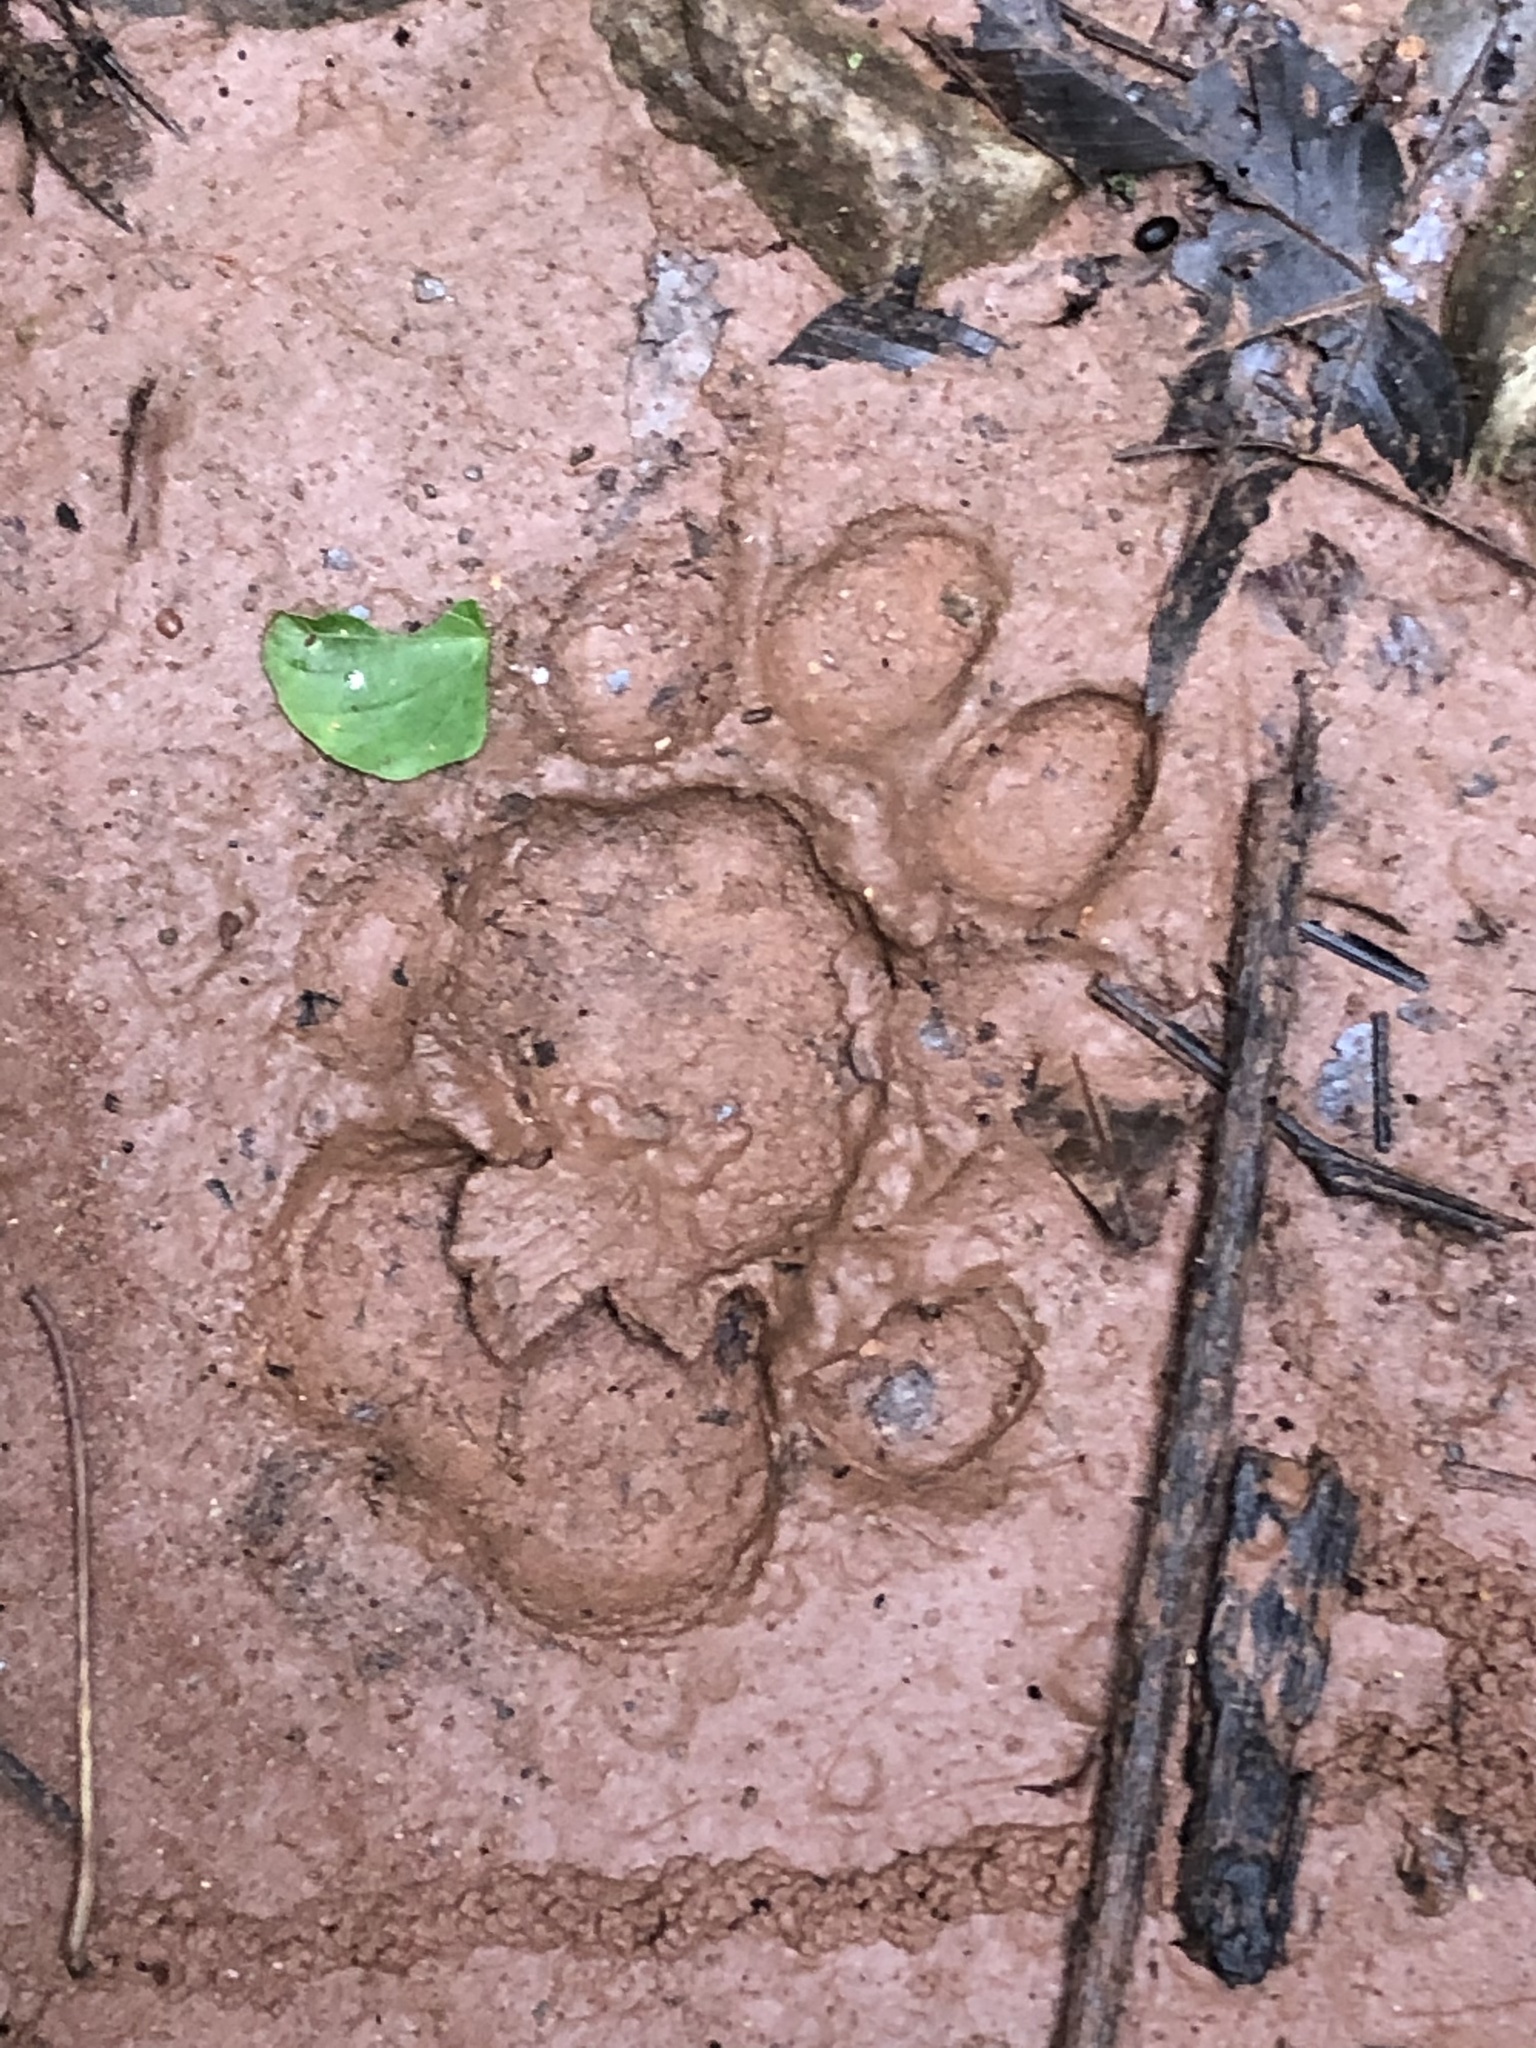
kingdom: Animalia
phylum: Chordata
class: Mammalia
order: Carnivora
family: Felidae
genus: Panthera
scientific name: Panthera onca
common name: Jaguar
